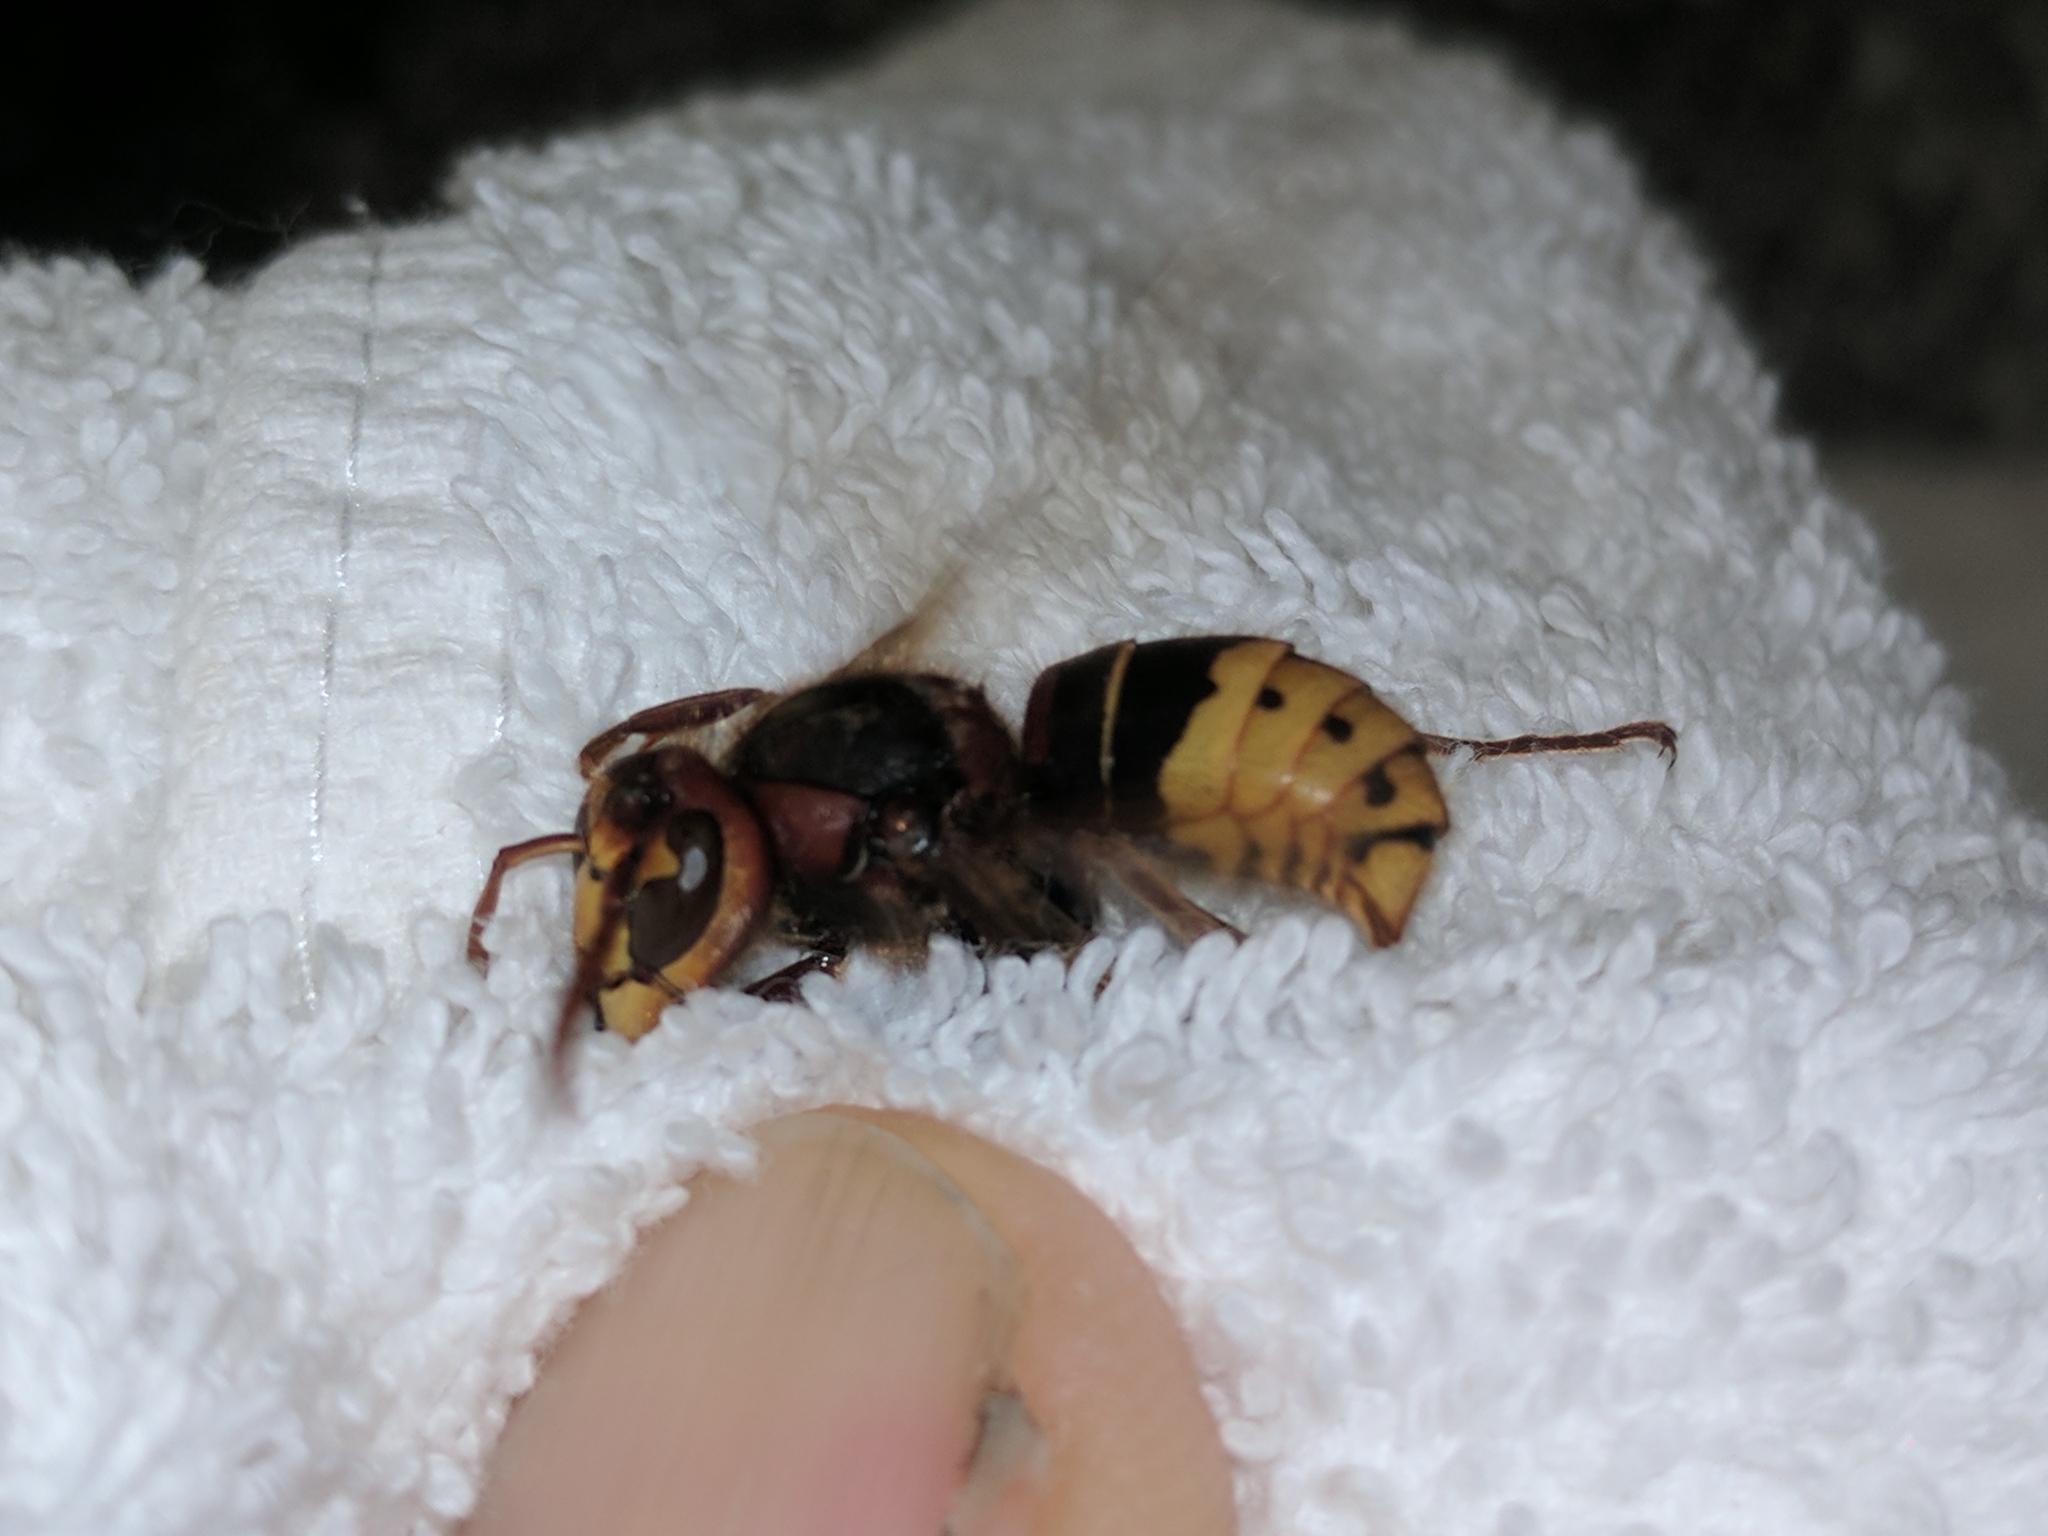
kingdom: Animalia
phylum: Arthropoda
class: Insecta
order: Hymenoptera
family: Vespidae
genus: Vespa
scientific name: Vespa crabro
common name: Hornet
